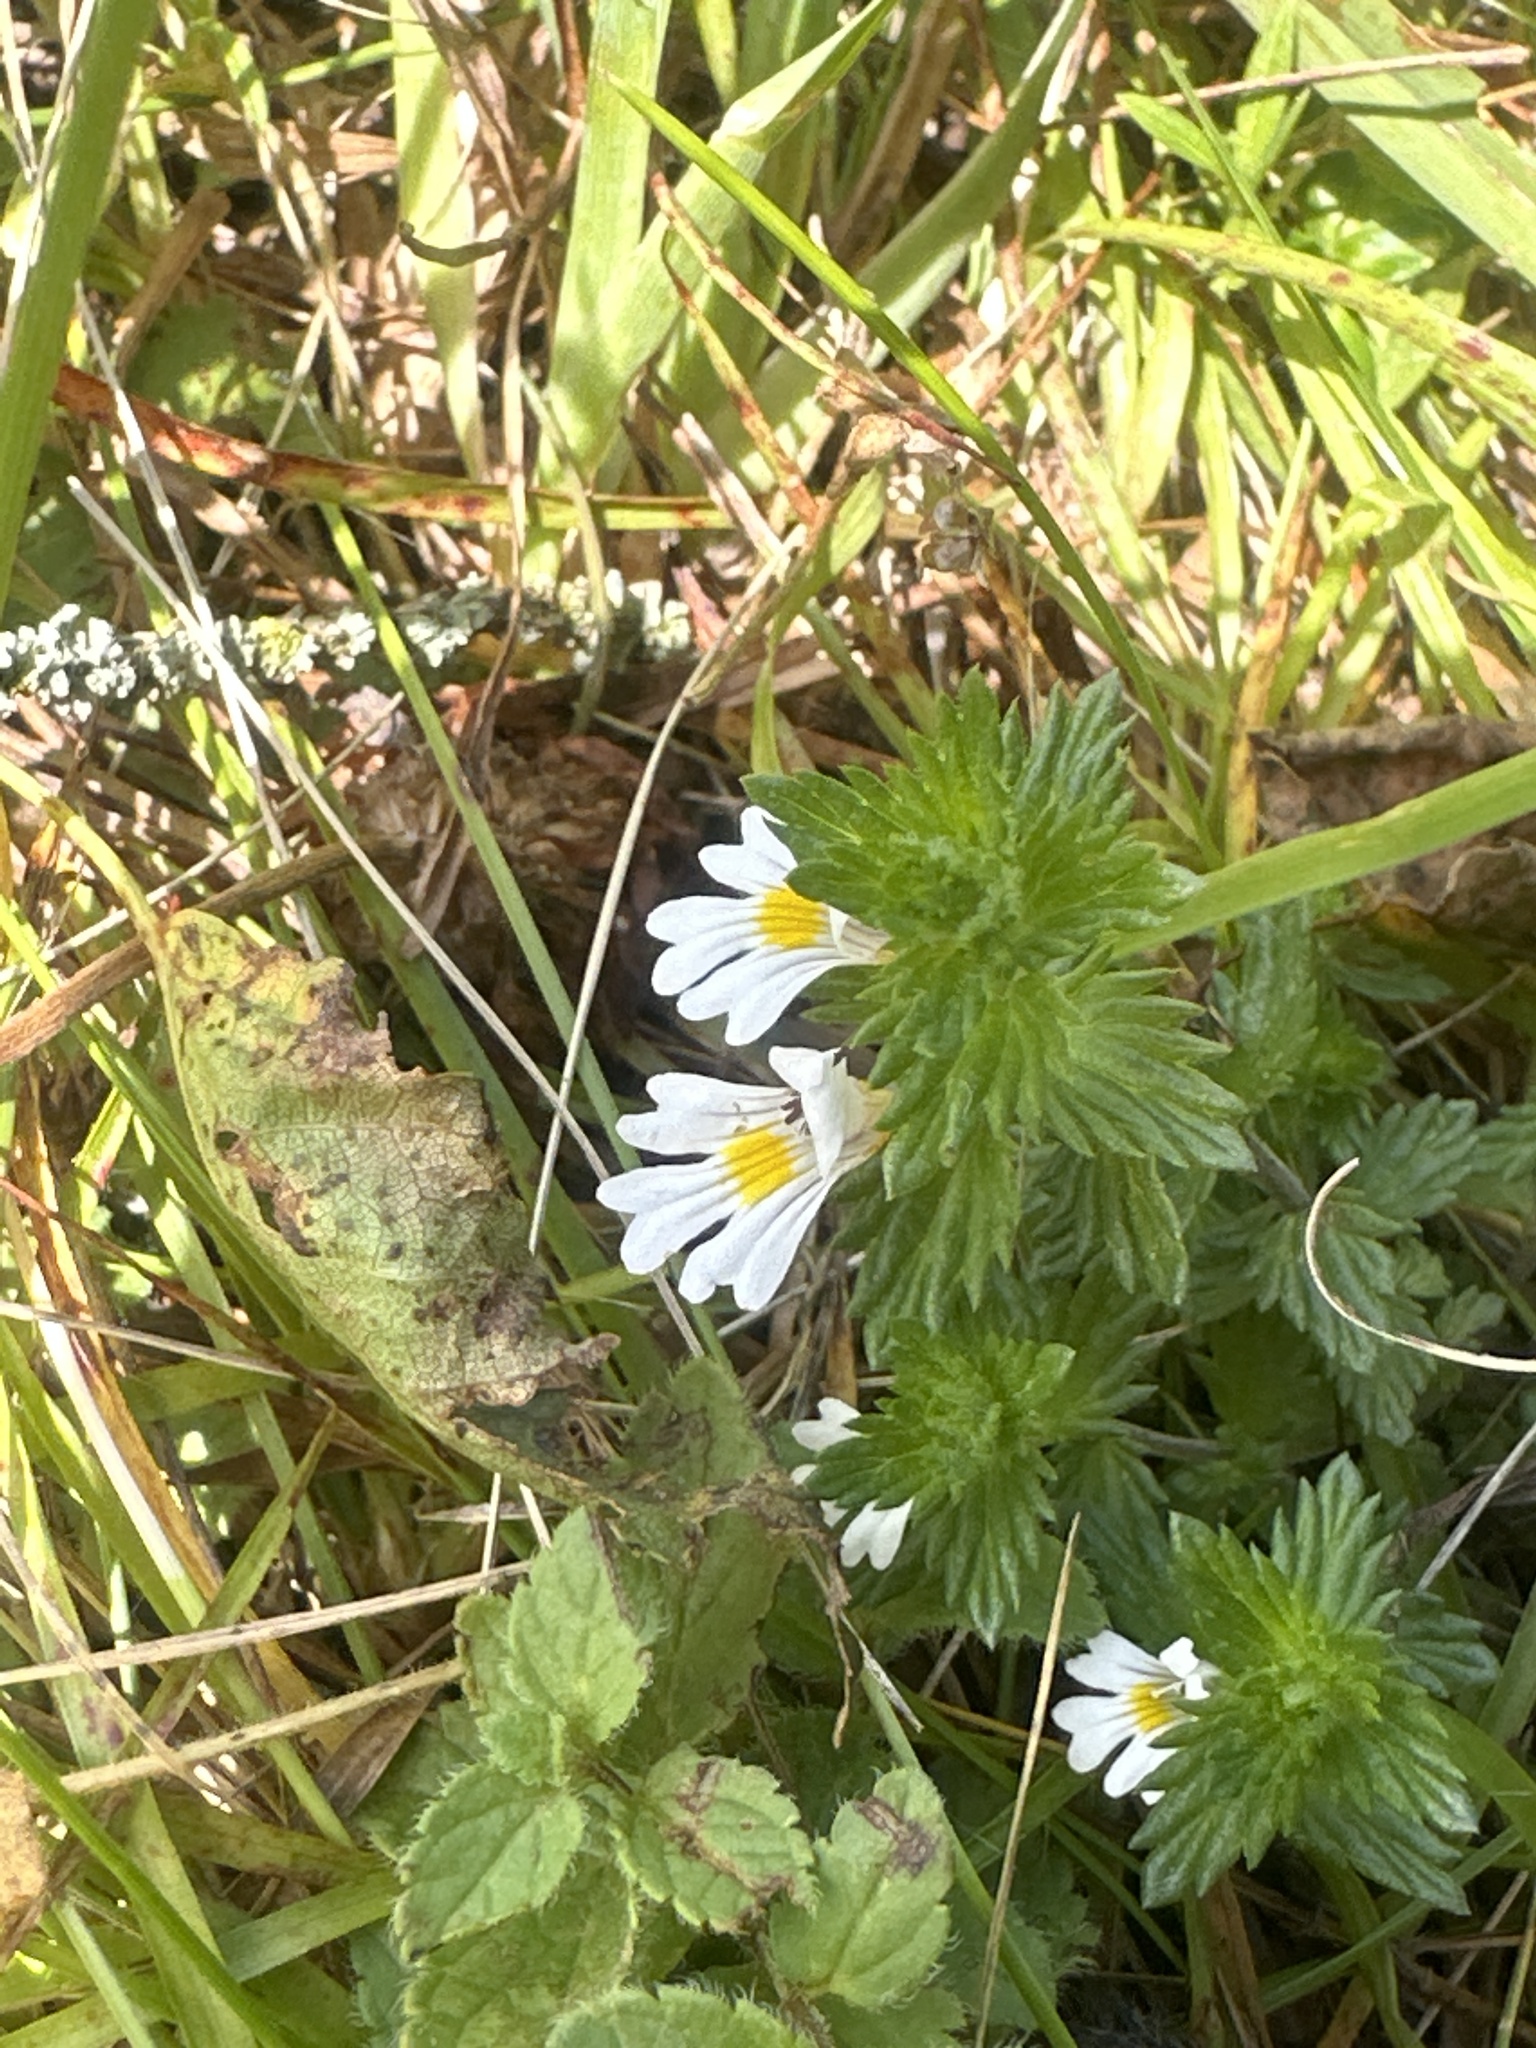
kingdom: Plantae
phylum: Tracheophyta
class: Magnoliopsida
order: Lamiales
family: Orobanchaceae
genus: Euphrasia
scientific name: Euphrasia officinalis
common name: Eyebright
